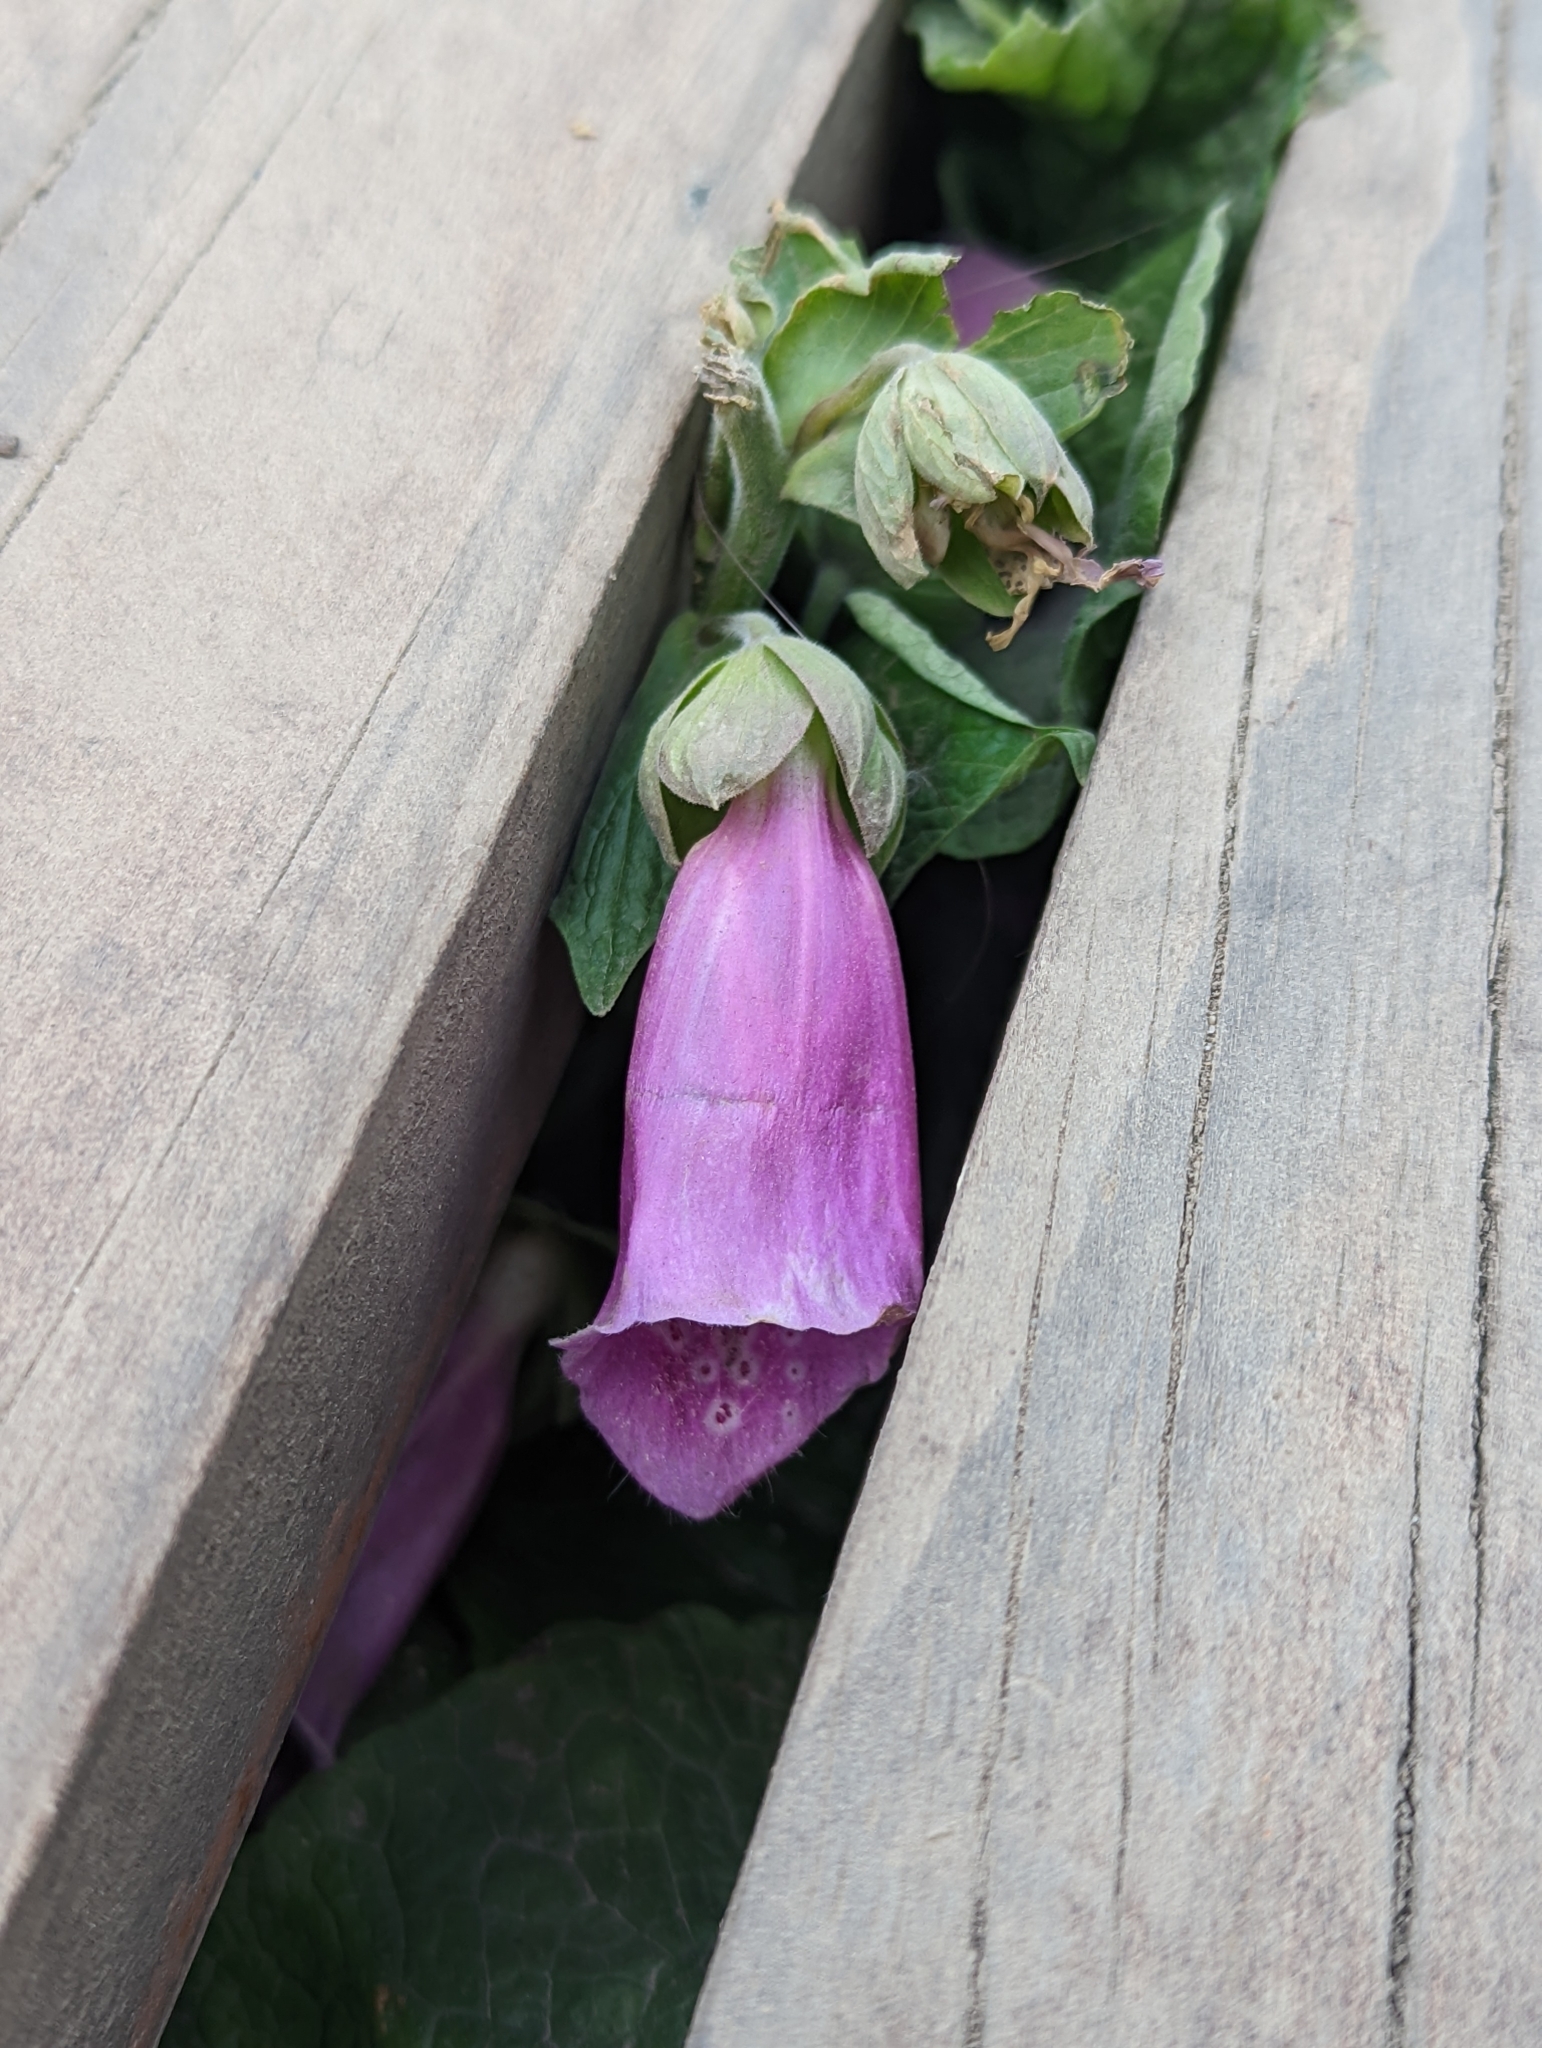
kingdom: Plantae
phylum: Tracheophyta
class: Magnoliopsida
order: Lamiales
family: Plantaginaceae
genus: Digitalis
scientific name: Digitalis purpurea
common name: Foxglove
